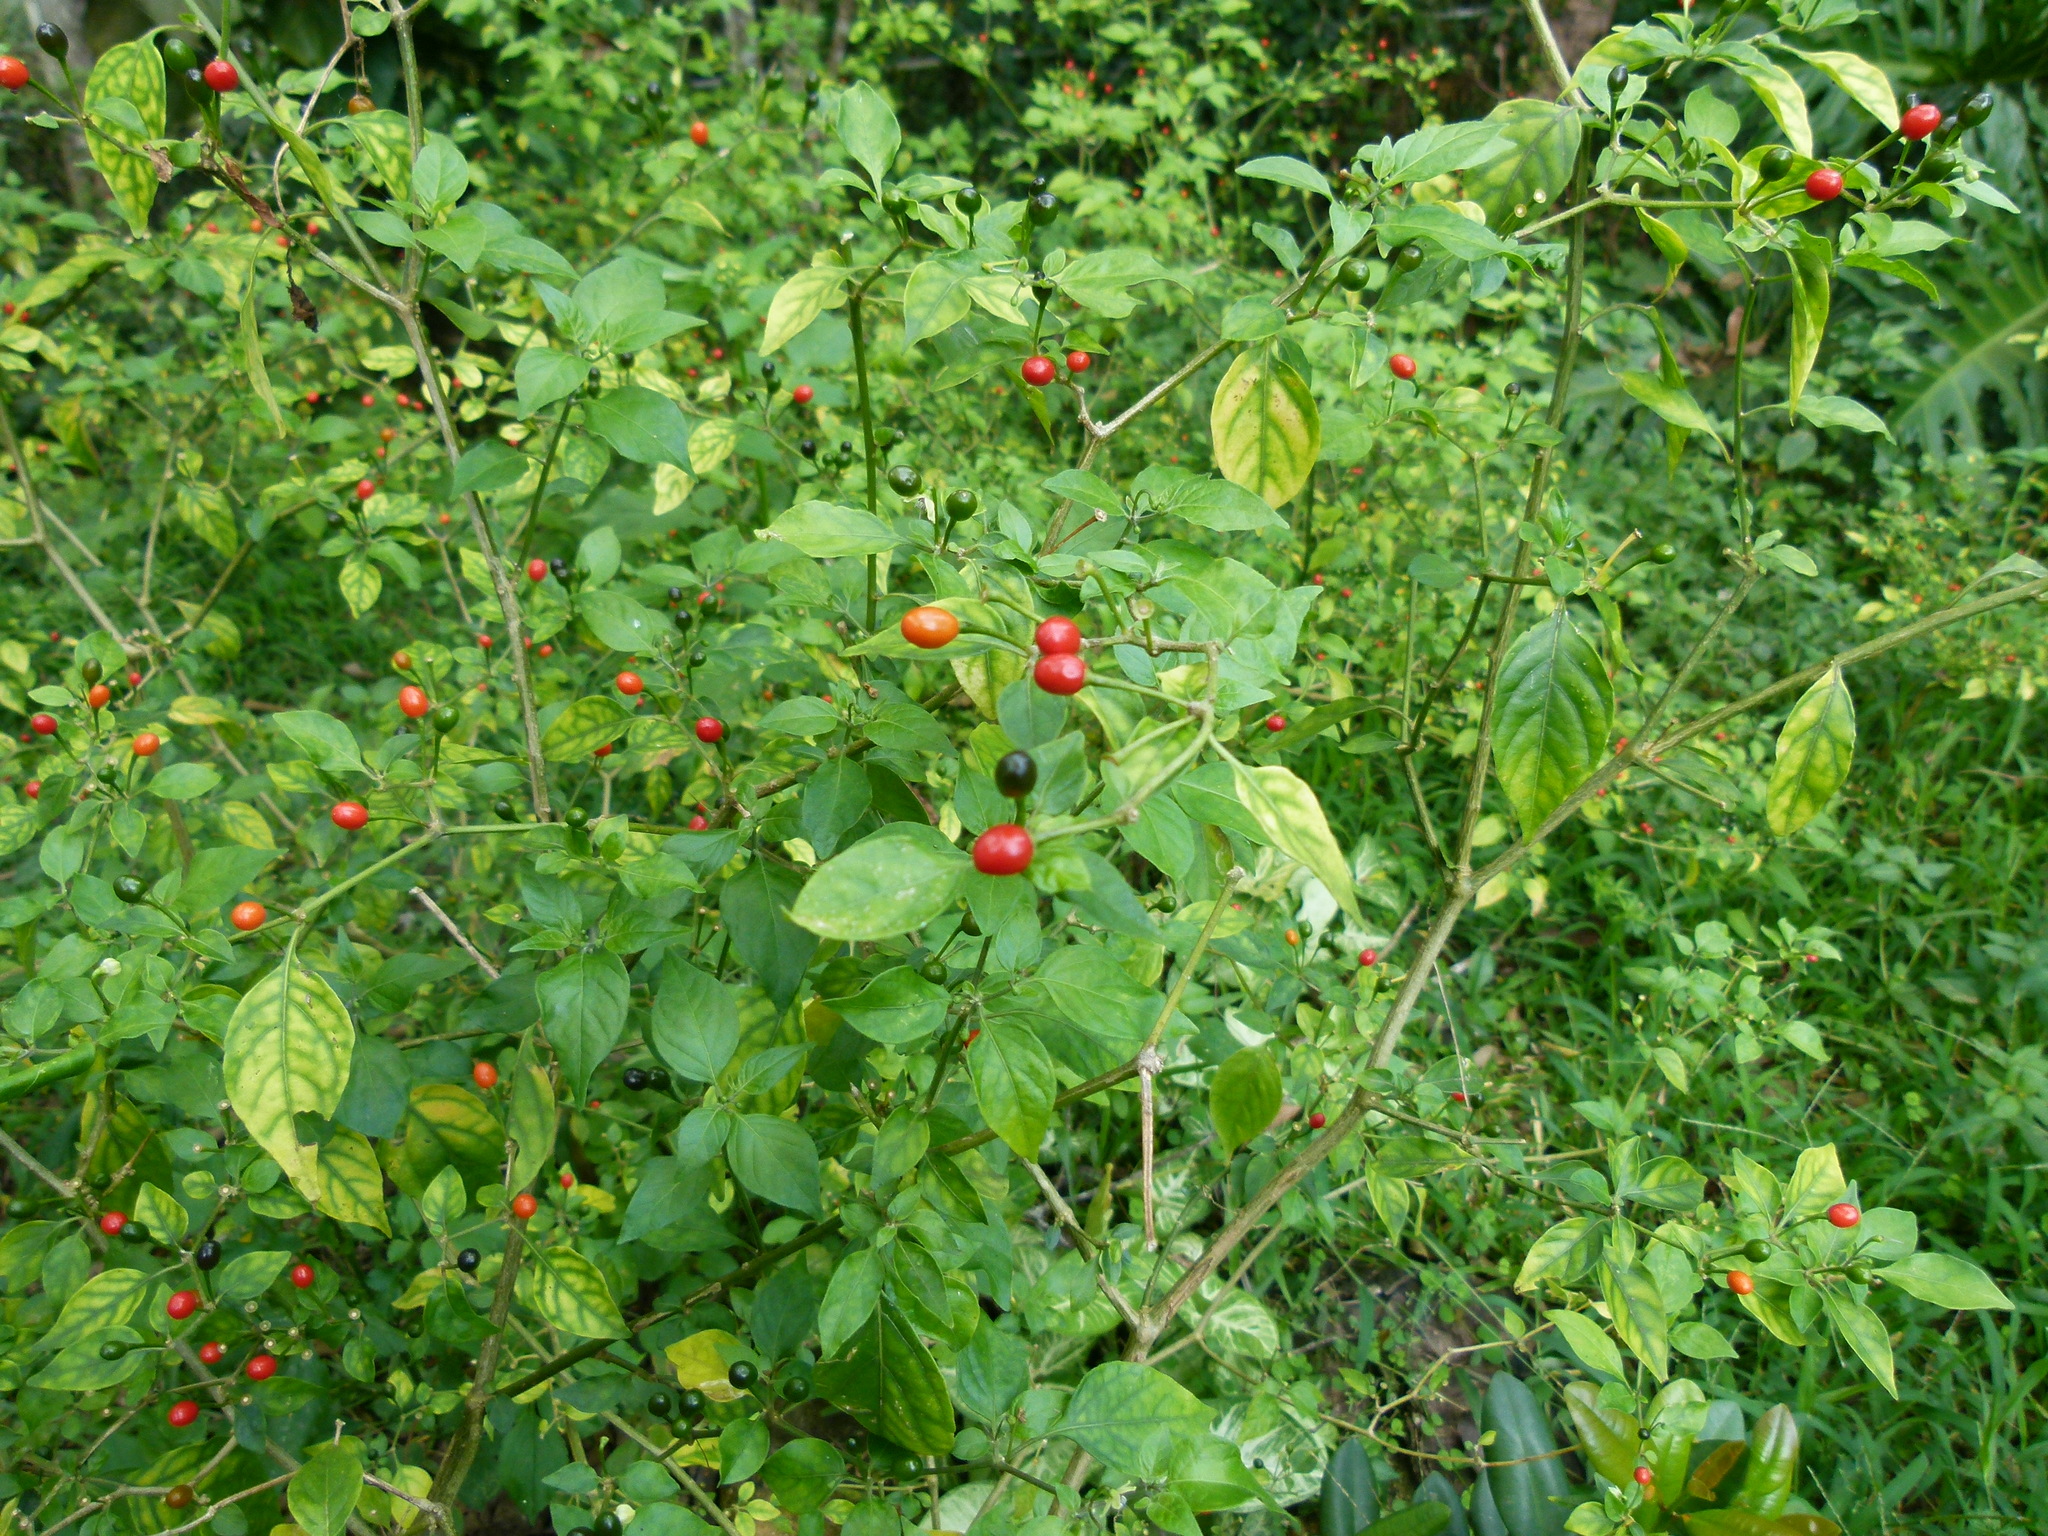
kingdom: Plantae
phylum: Tracheophyta
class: Magnoliopsida
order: Solanales
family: Solanaceae
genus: Capsicum
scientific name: Capsicum annuum
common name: Sweet pepper
